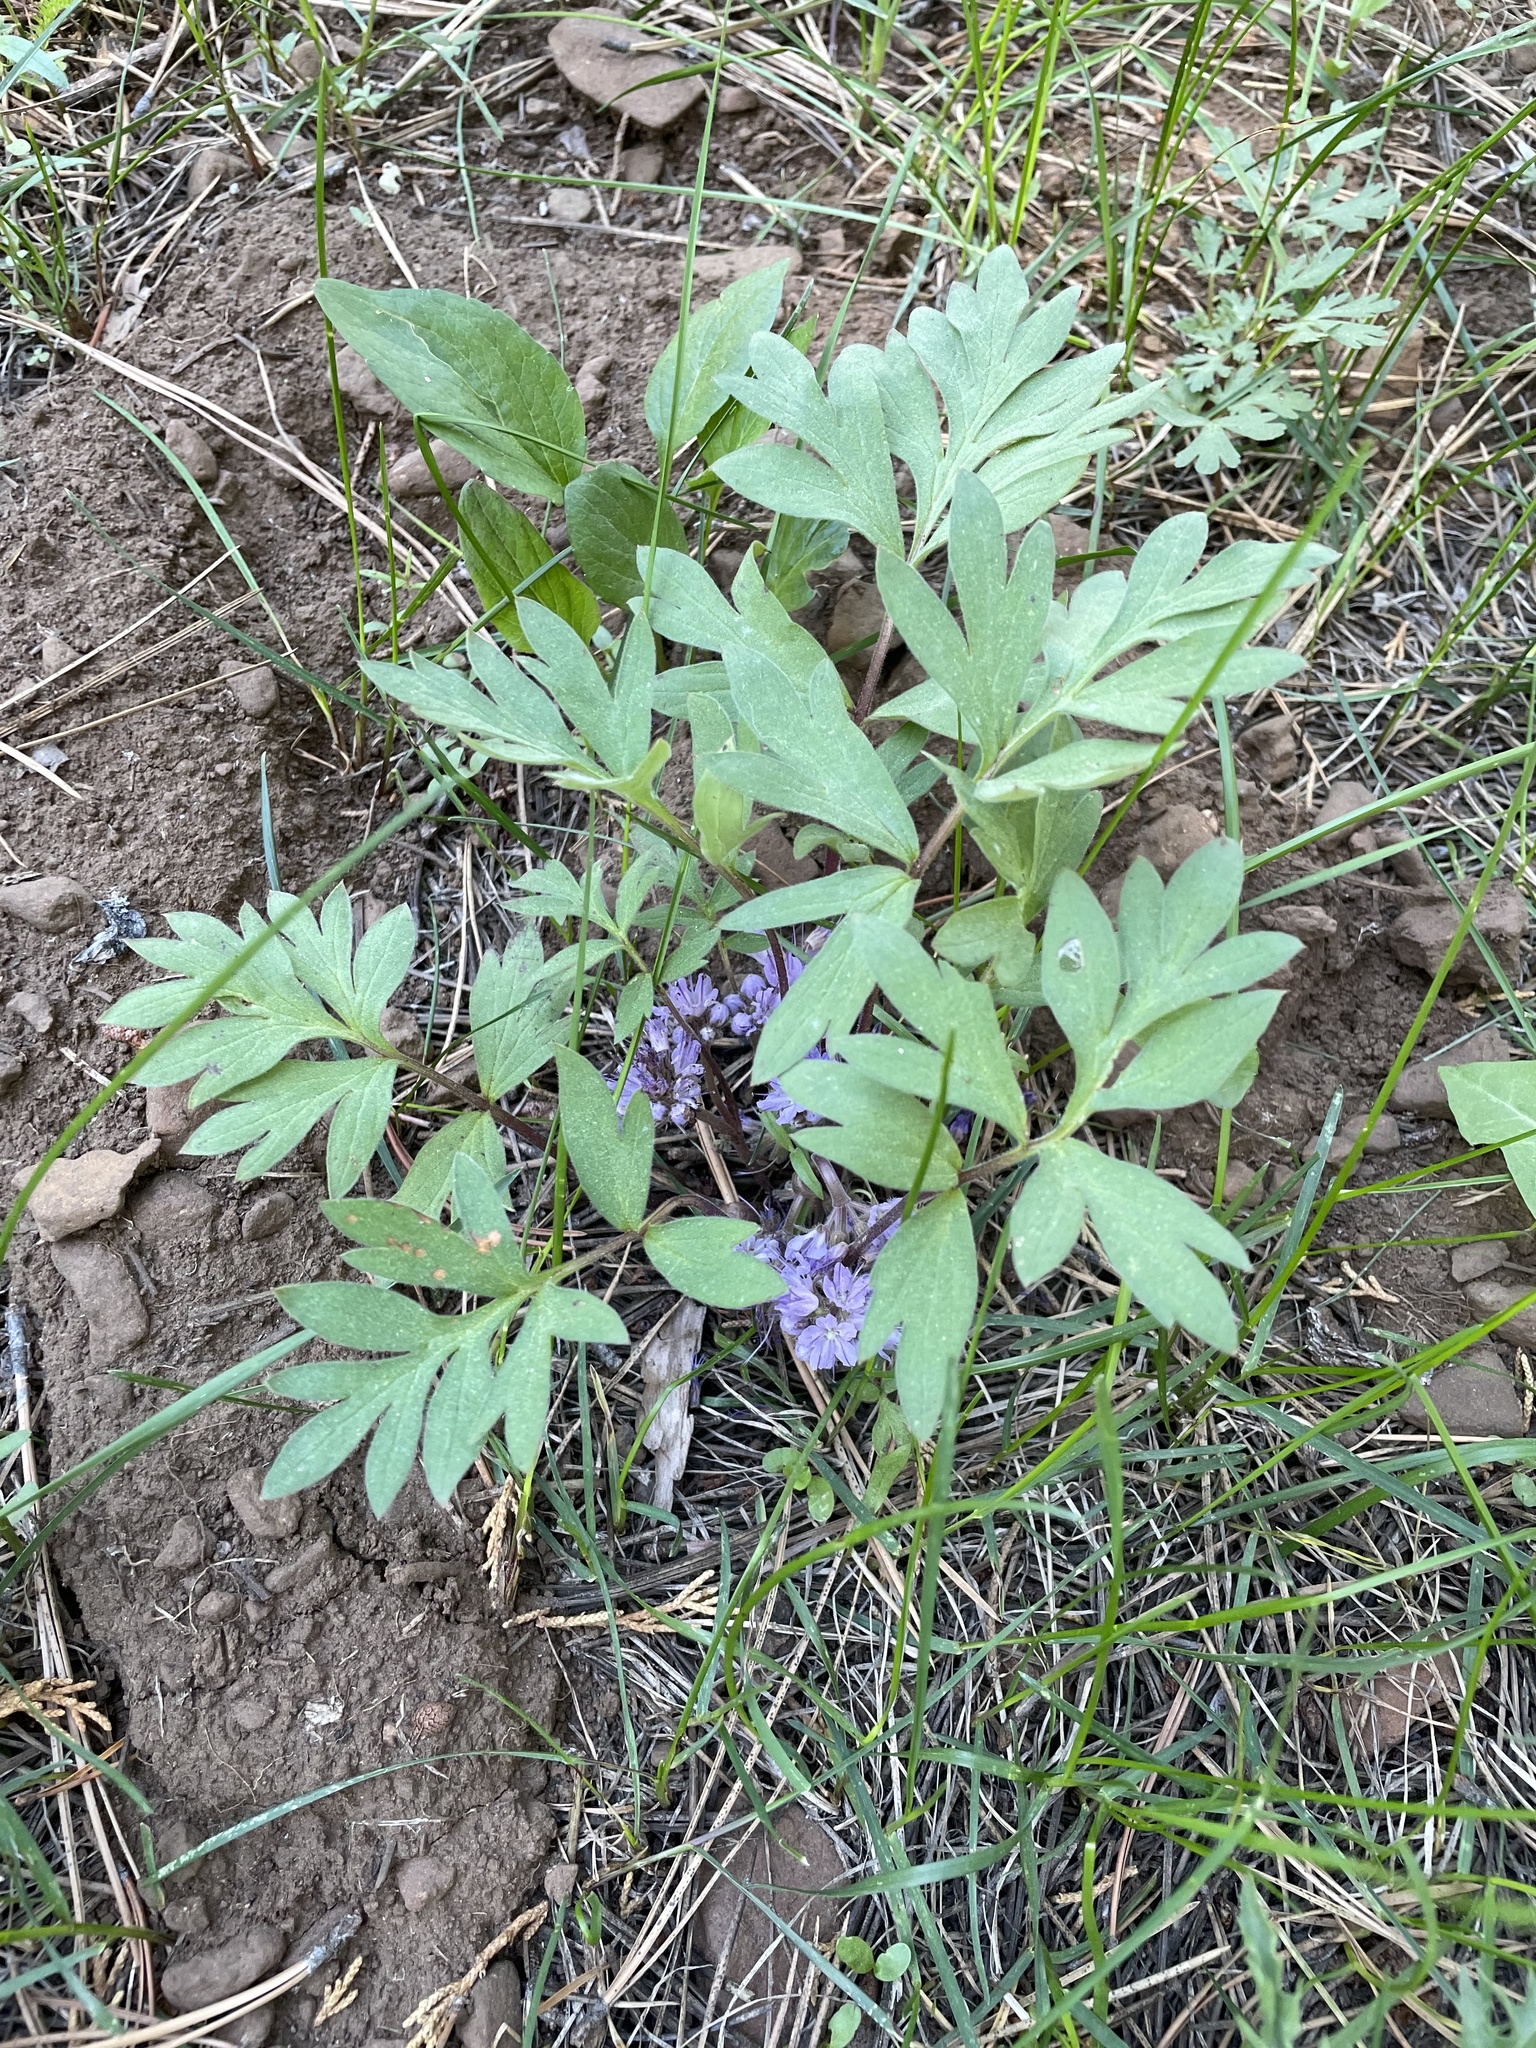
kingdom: Plantae
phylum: Tracheophyta
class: Magnoliopsida
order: Boraginales
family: Hydrophyllaceae
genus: Hydrophyllum
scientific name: Hydrophyllum alpestre
